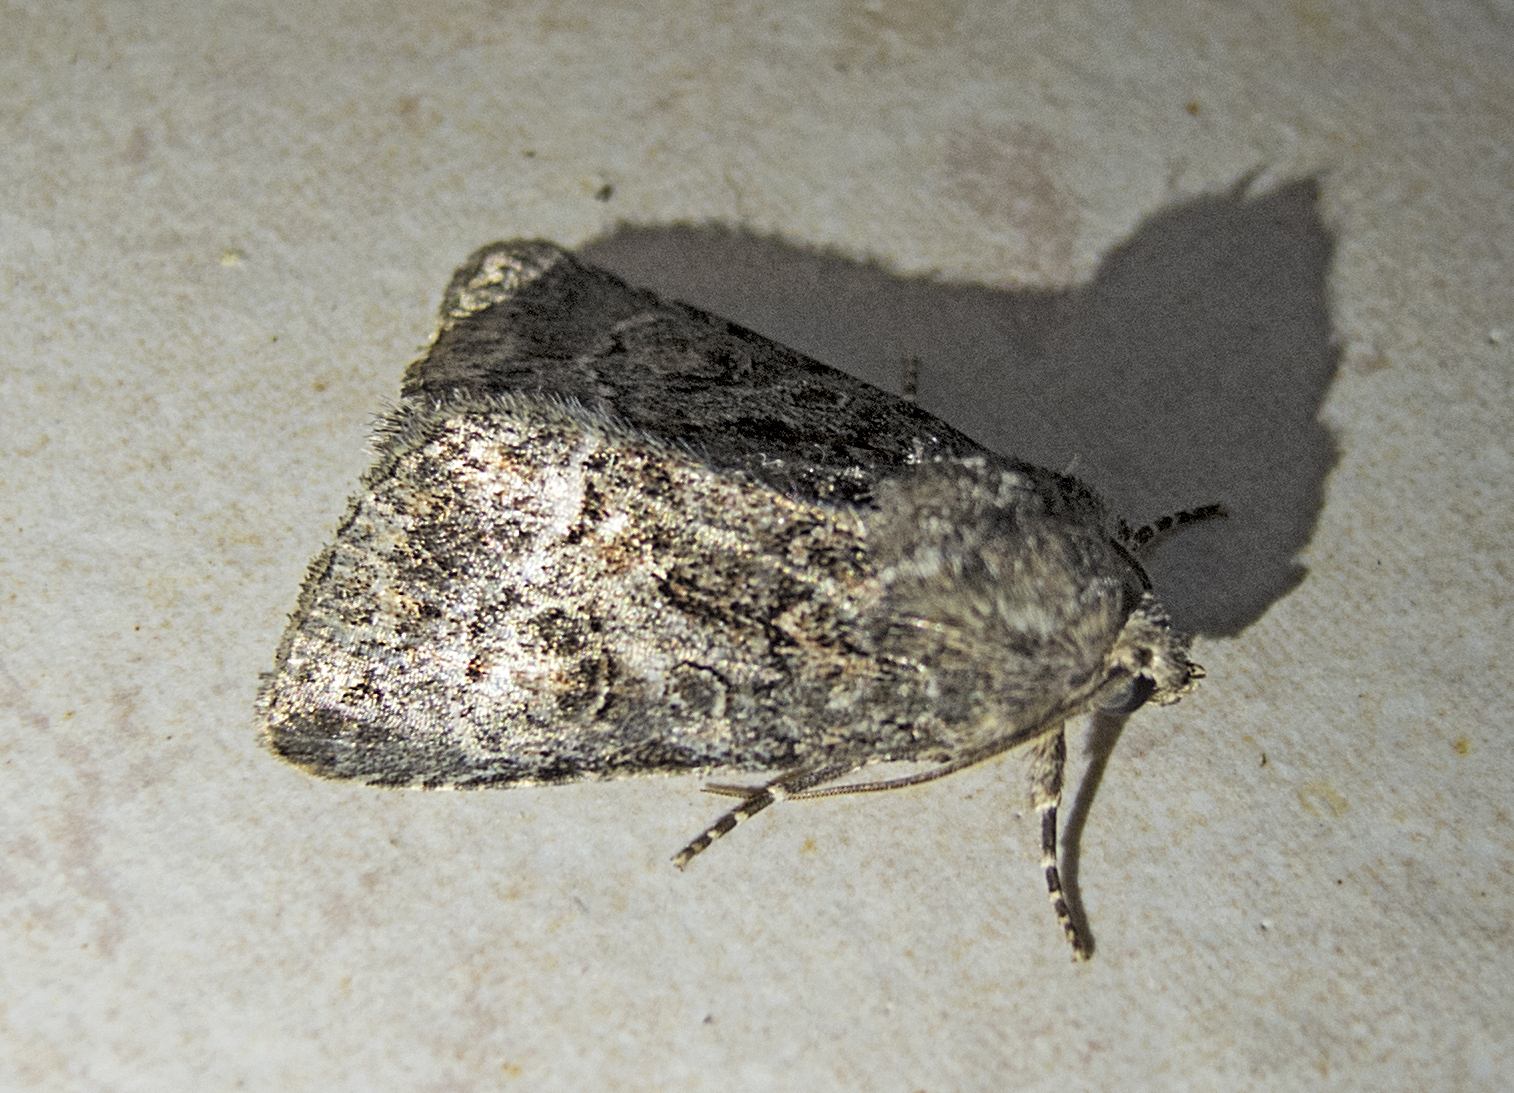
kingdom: Animalia
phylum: Arthropoda
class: Insecta
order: Lepidoptera
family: Noctuidae
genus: Thalpophila
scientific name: Thalpophila matura
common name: Straw underwing
